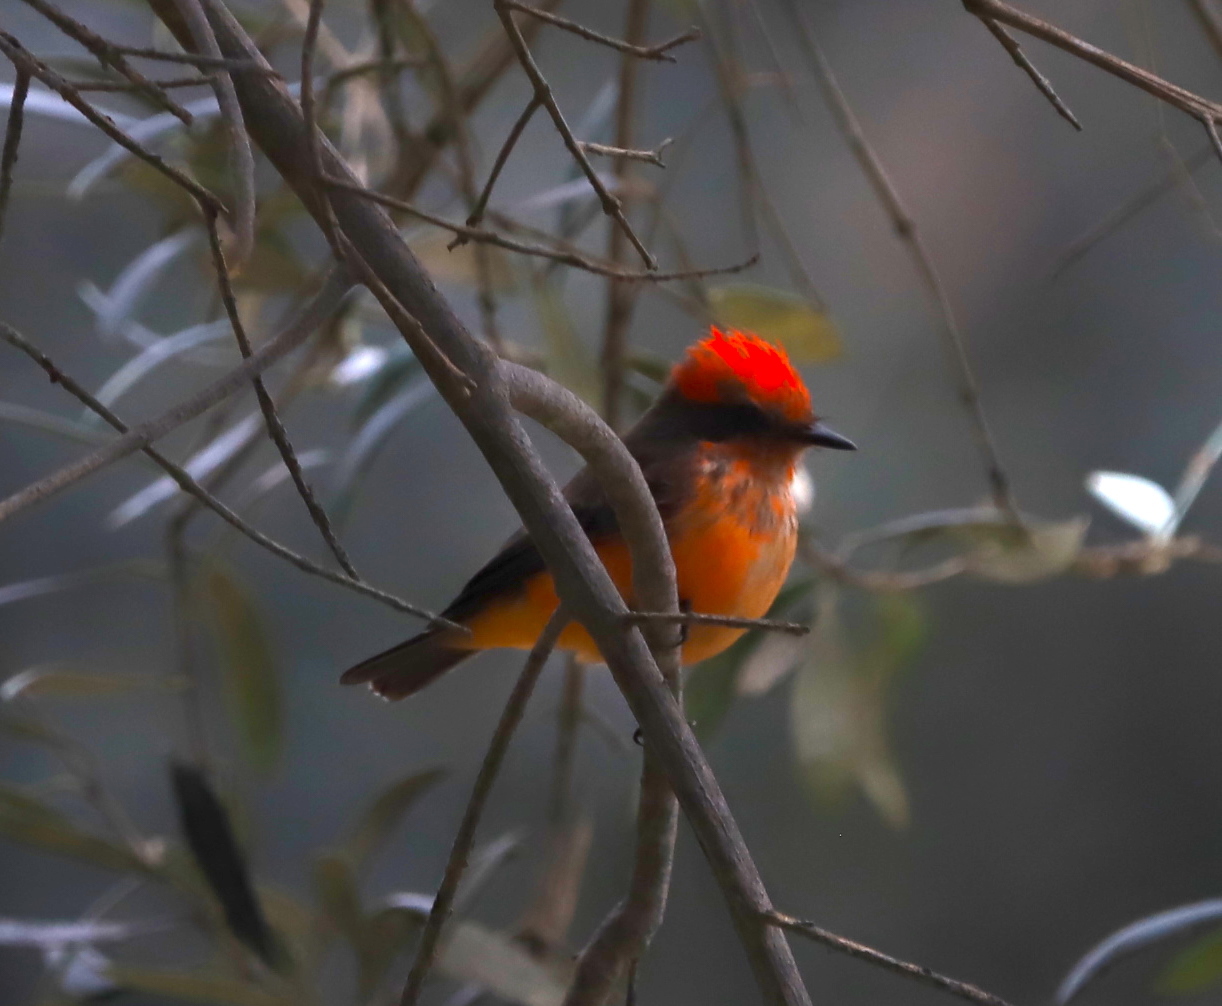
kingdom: Animalia
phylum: Chordata
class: Aves
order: Passeriformes
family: Tyrannidae
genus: Pyrocephalus
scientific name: Pyrocephalus rubinus
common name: Vermilion flycatcher
